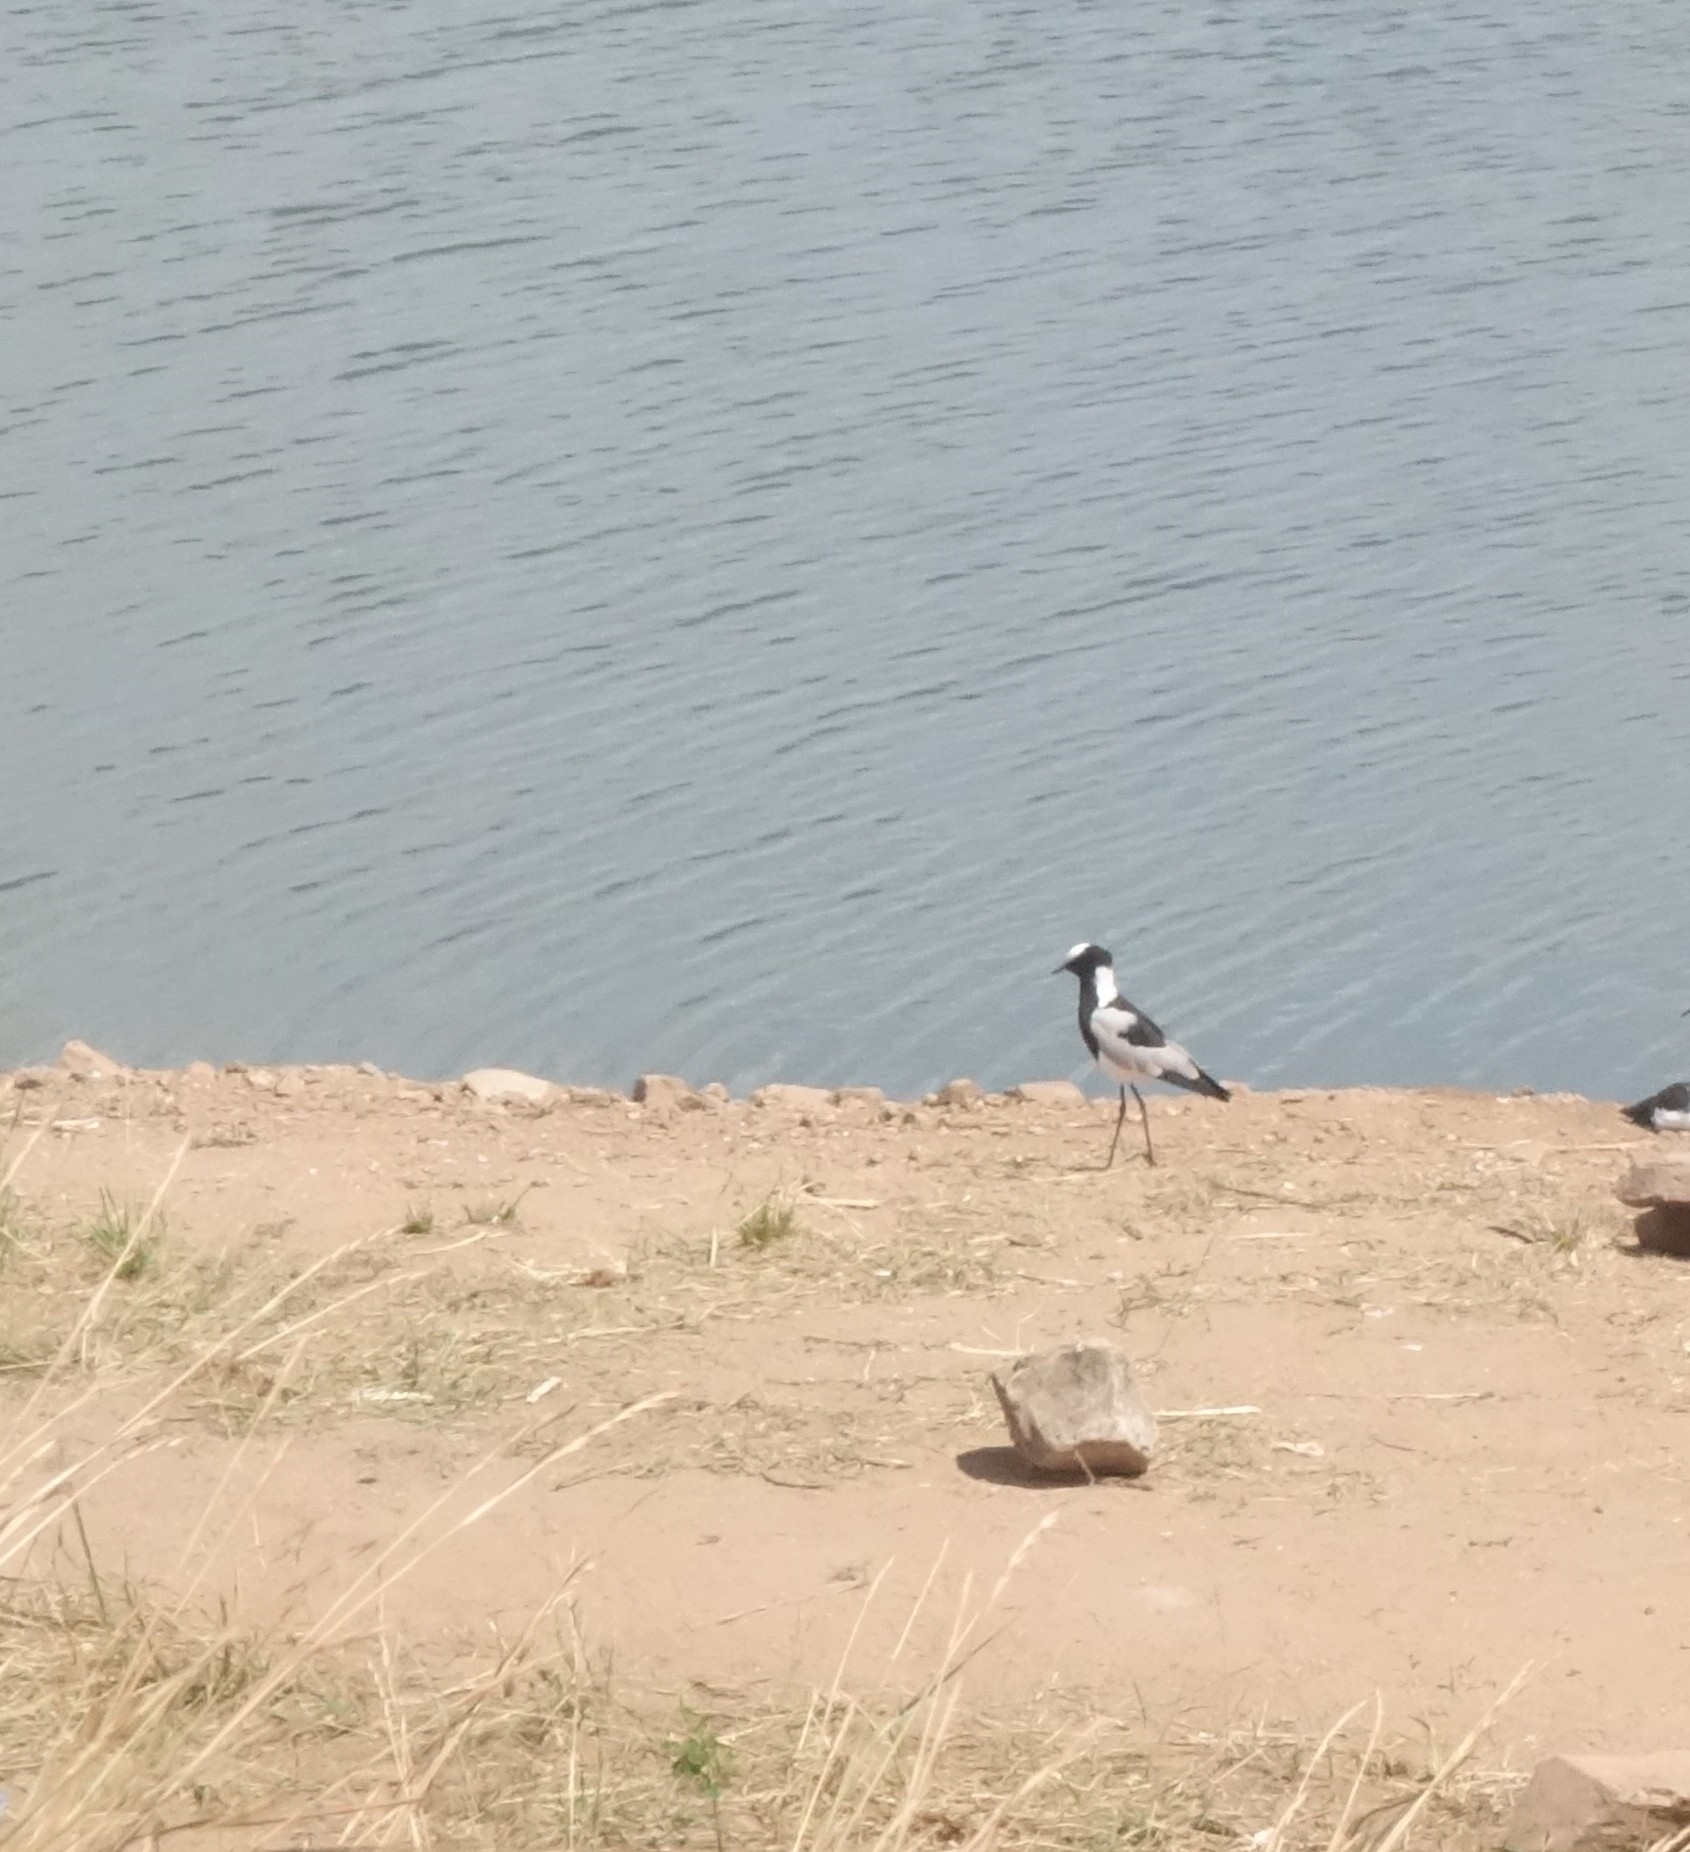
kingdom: Animalia
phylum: Chordata
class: Aves
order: Charadriiformes
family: Charadriidae
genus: Vanellus
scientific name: Vanellus armatus
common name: Blacksmith lapwing
